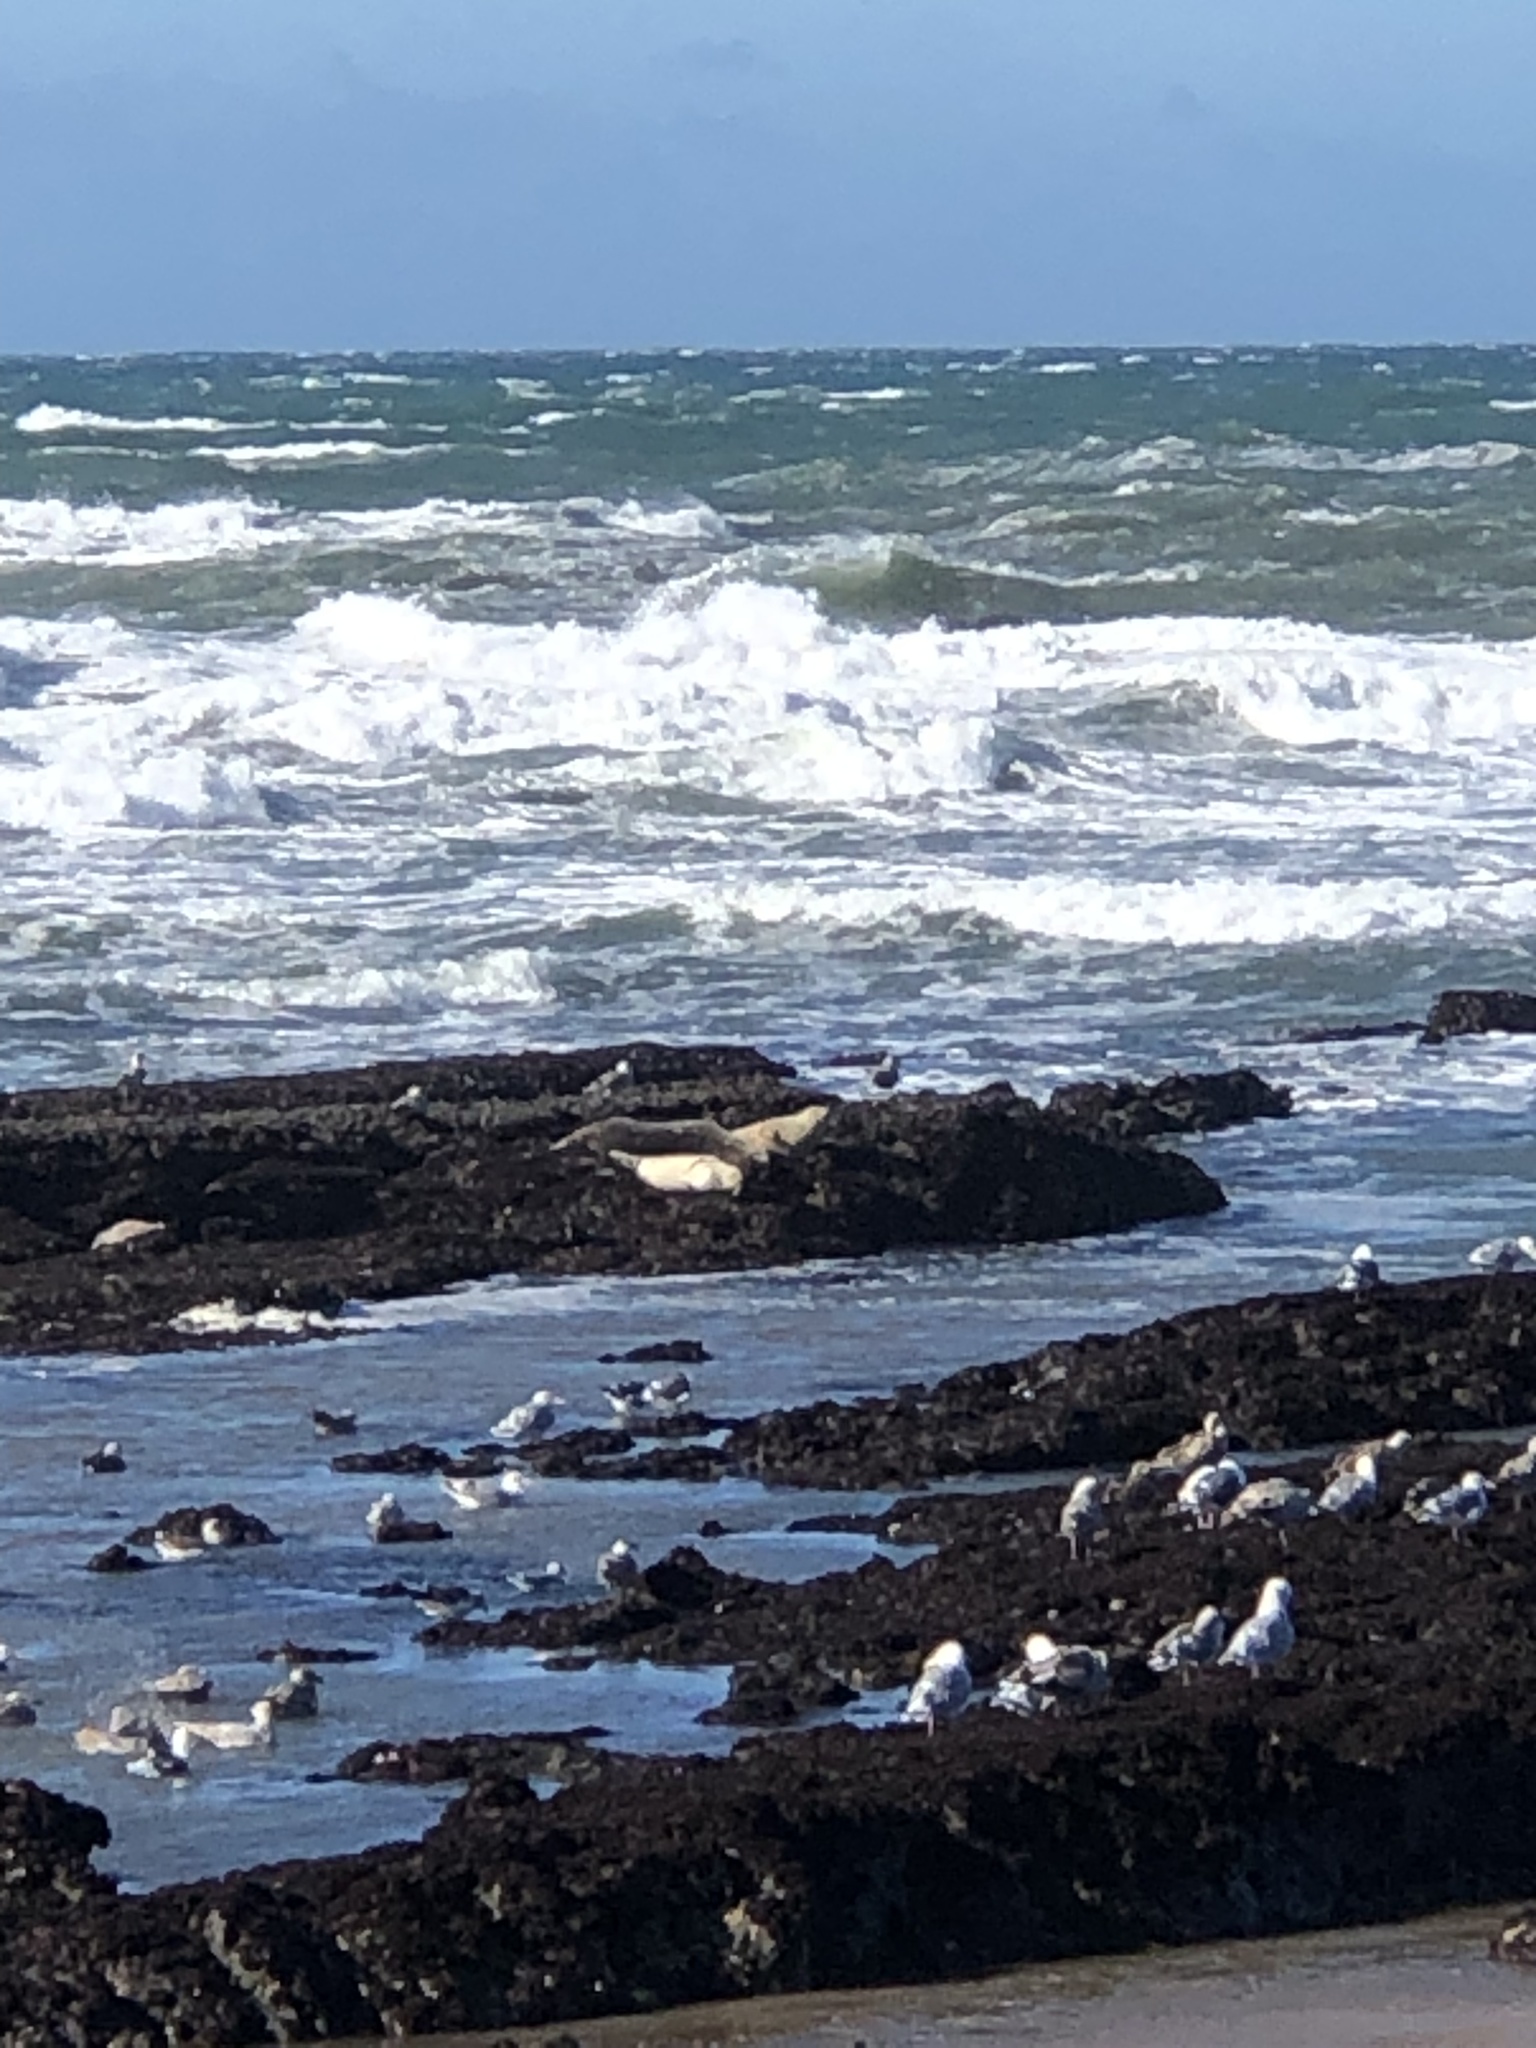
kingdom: Animalia
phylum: Chordata
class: Mammalia
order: Carnivora
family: Phocidae
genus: Phoca
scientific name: Phoca vitulina
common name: Harbor seal
